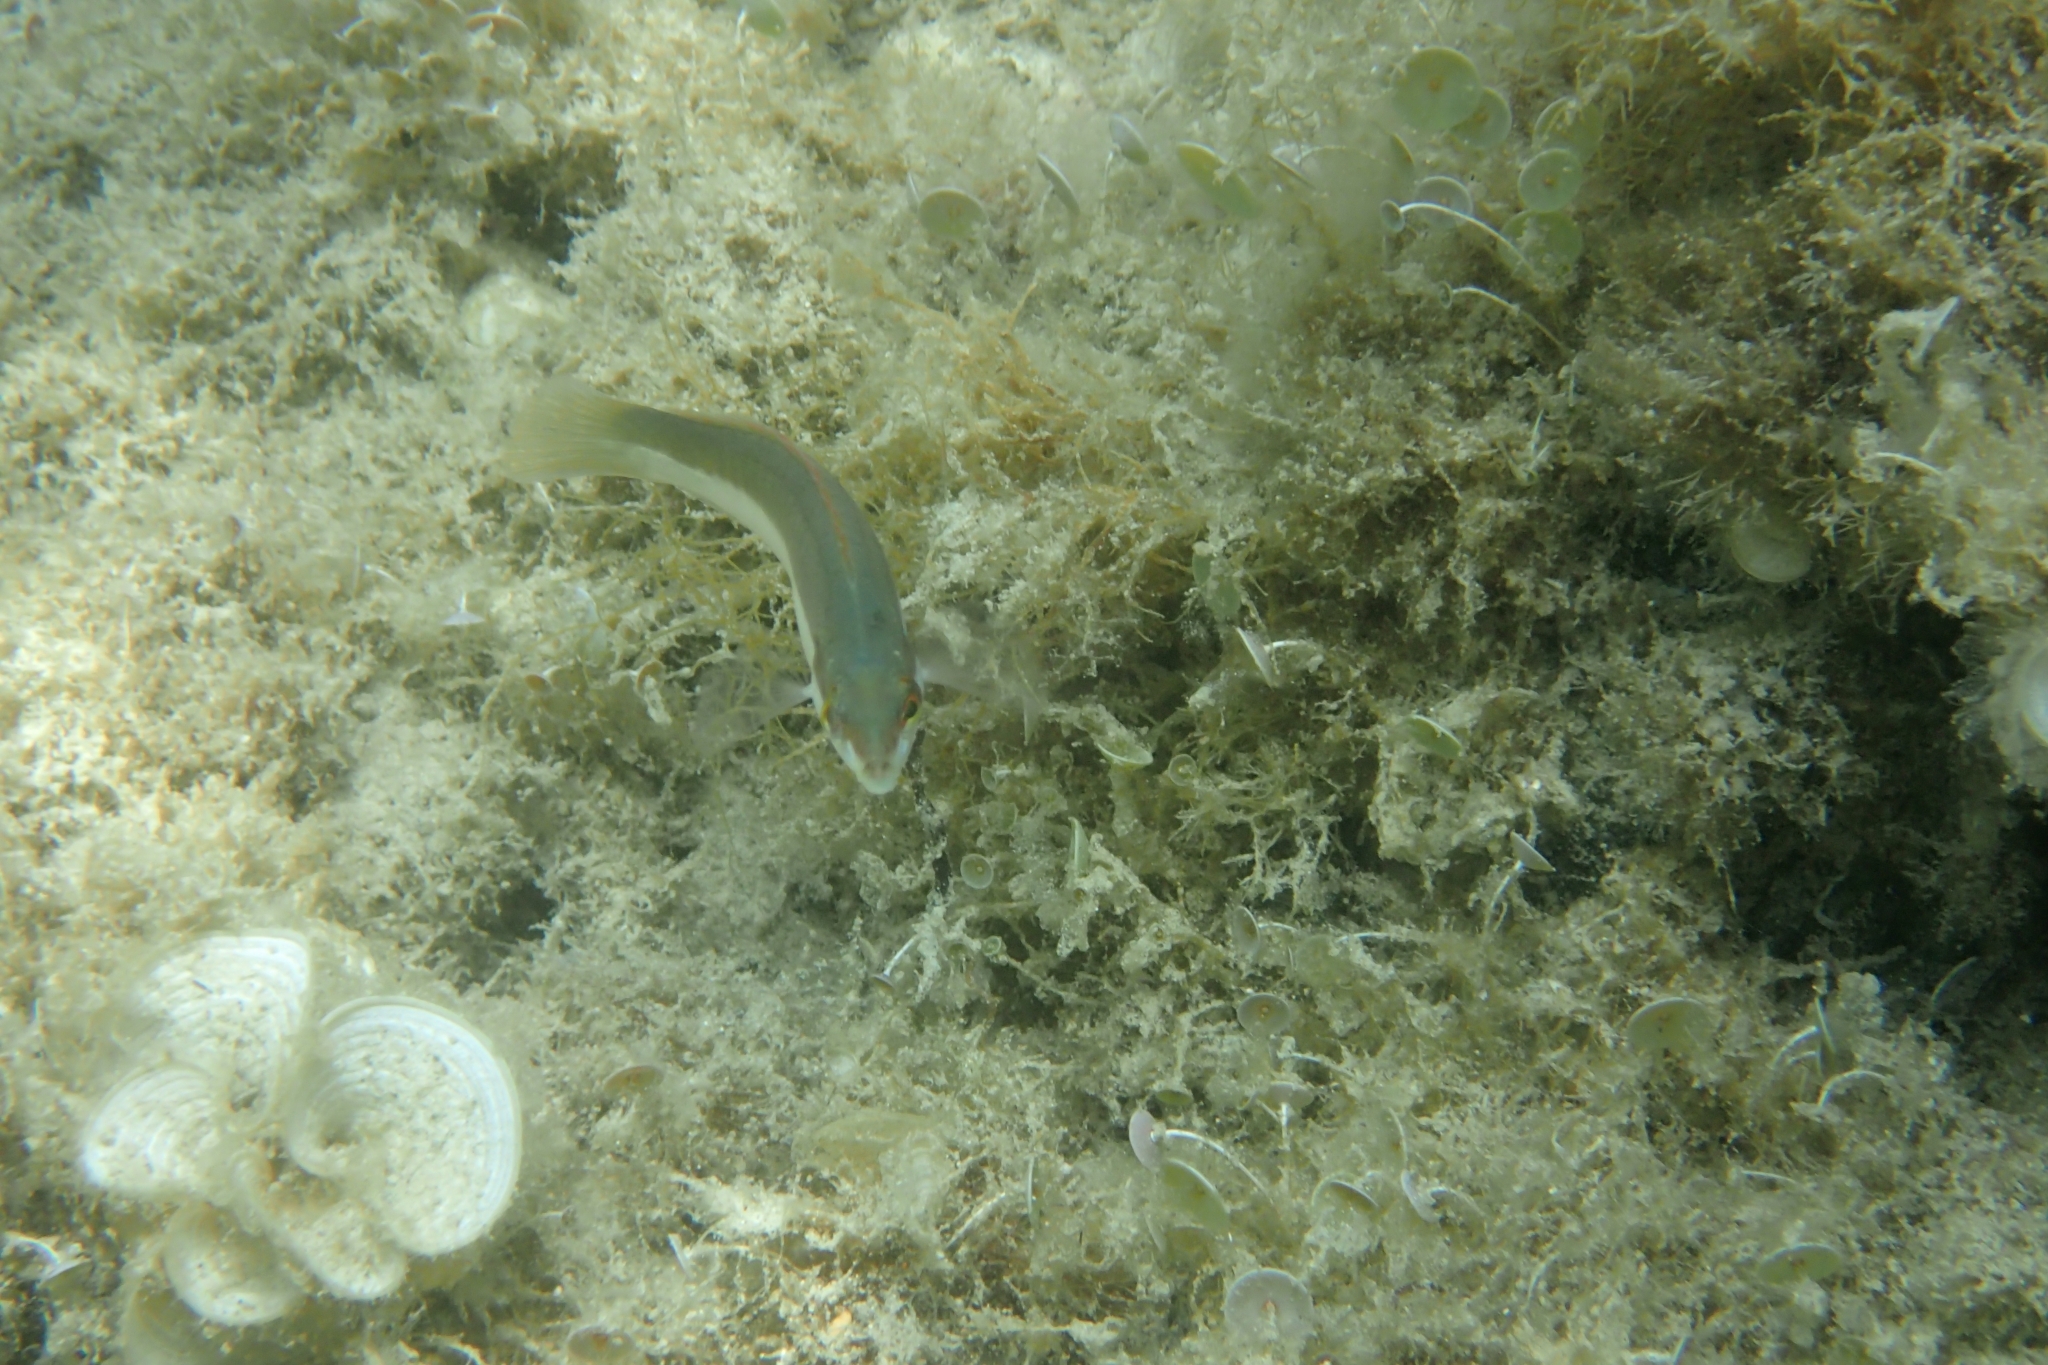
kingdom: Animalia
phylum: Chordata
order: Perciformes
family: Labridae
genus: Coris
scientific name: Coris julis
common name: Rainbow wrasse
